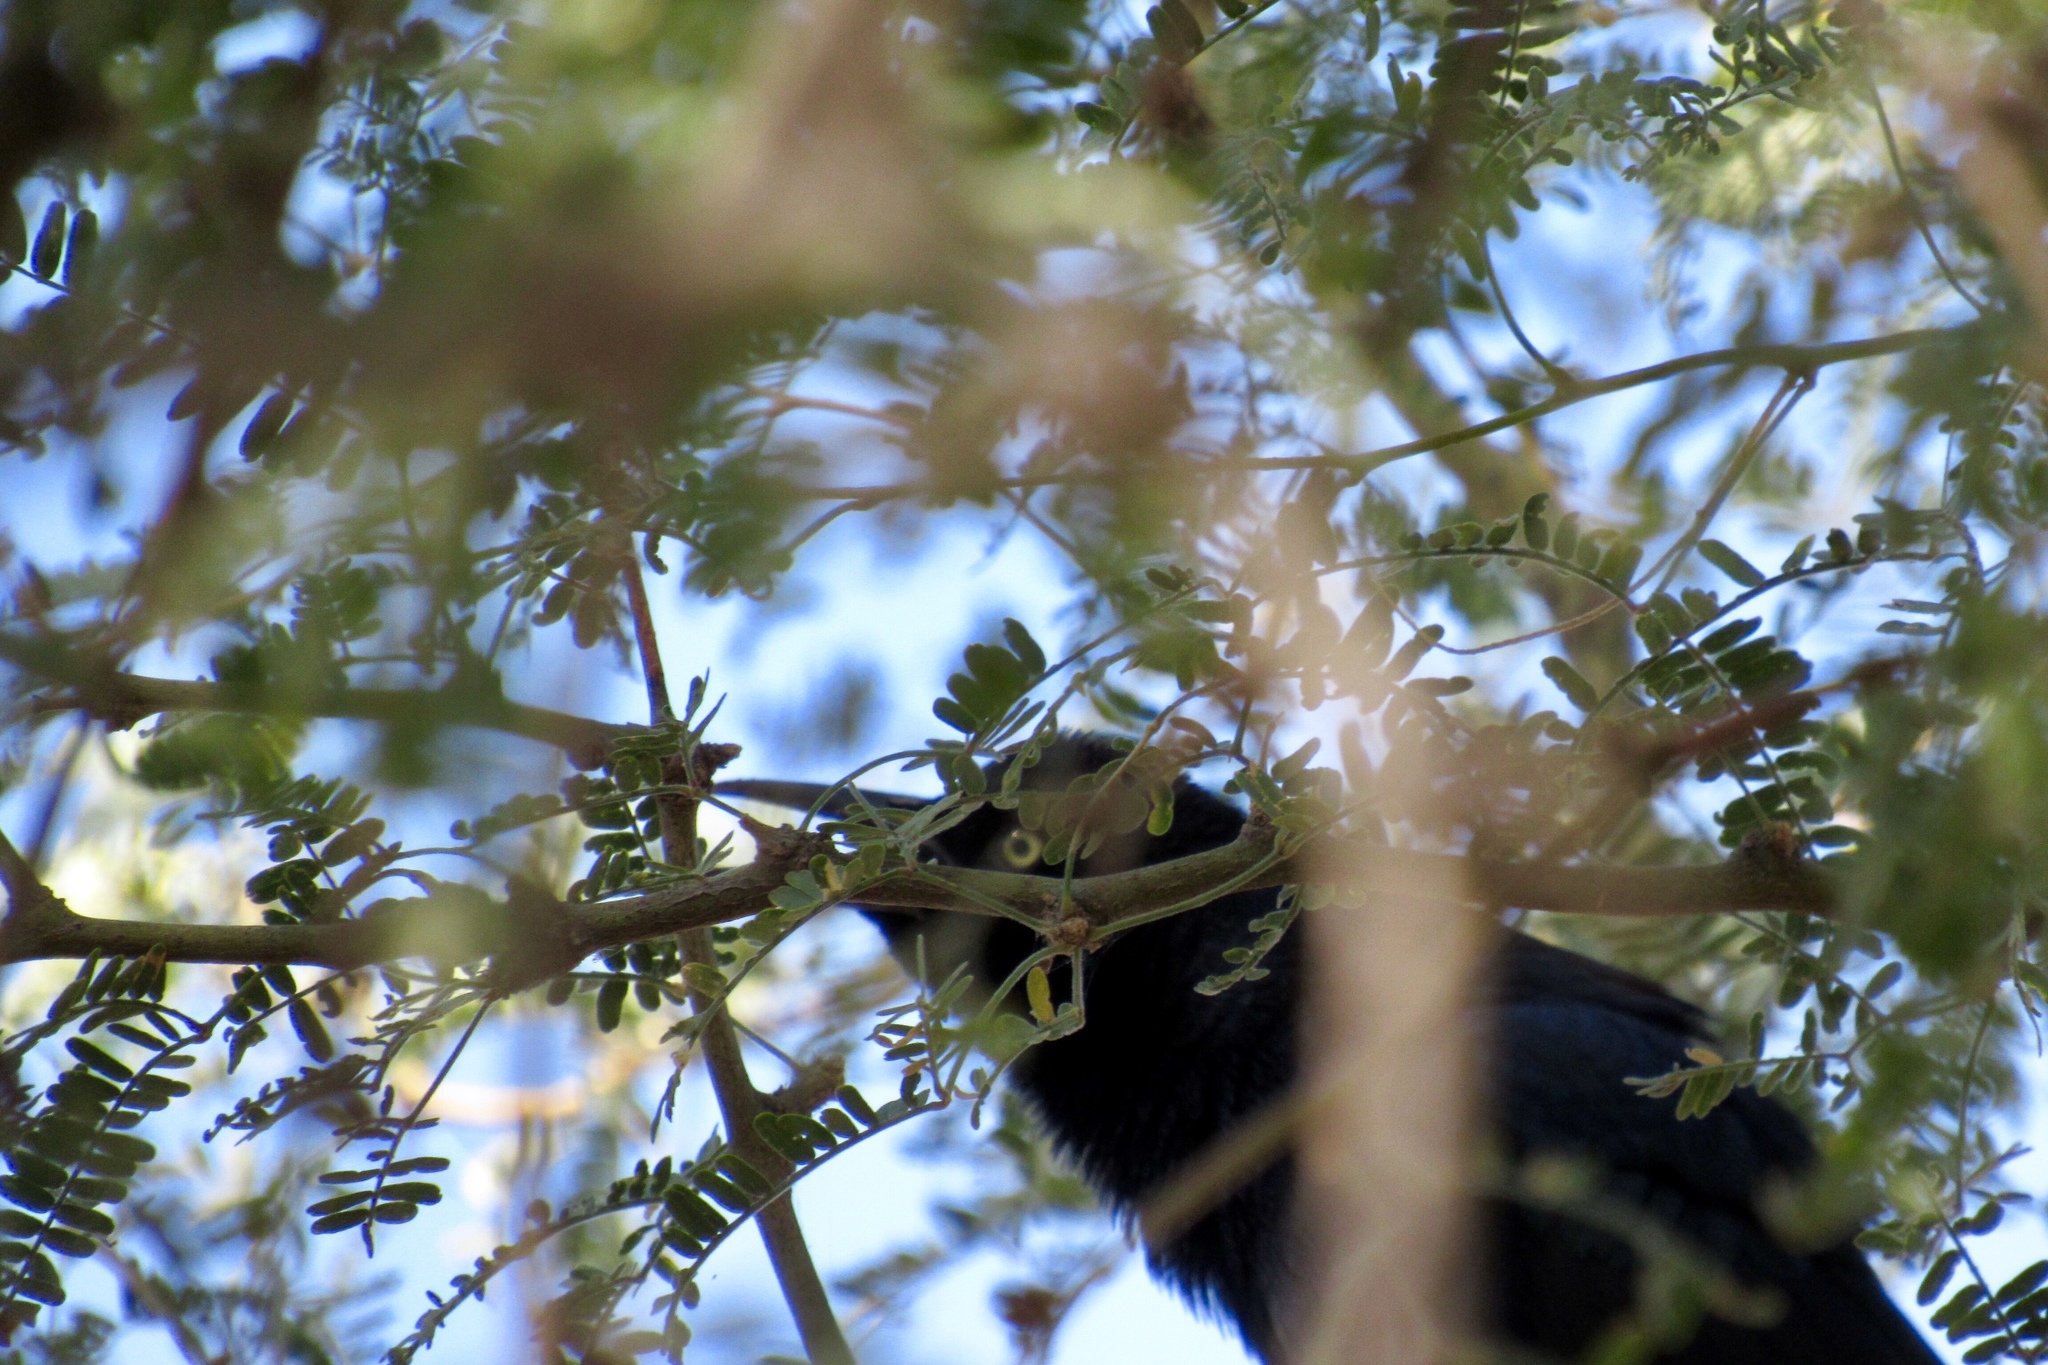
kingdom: Animalia
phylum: Chordata
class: Aves
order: Passeriformes
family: Icteridae
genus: Quiscalus
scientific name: Quiscalus mexicanus
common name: Great-tailed grackle
